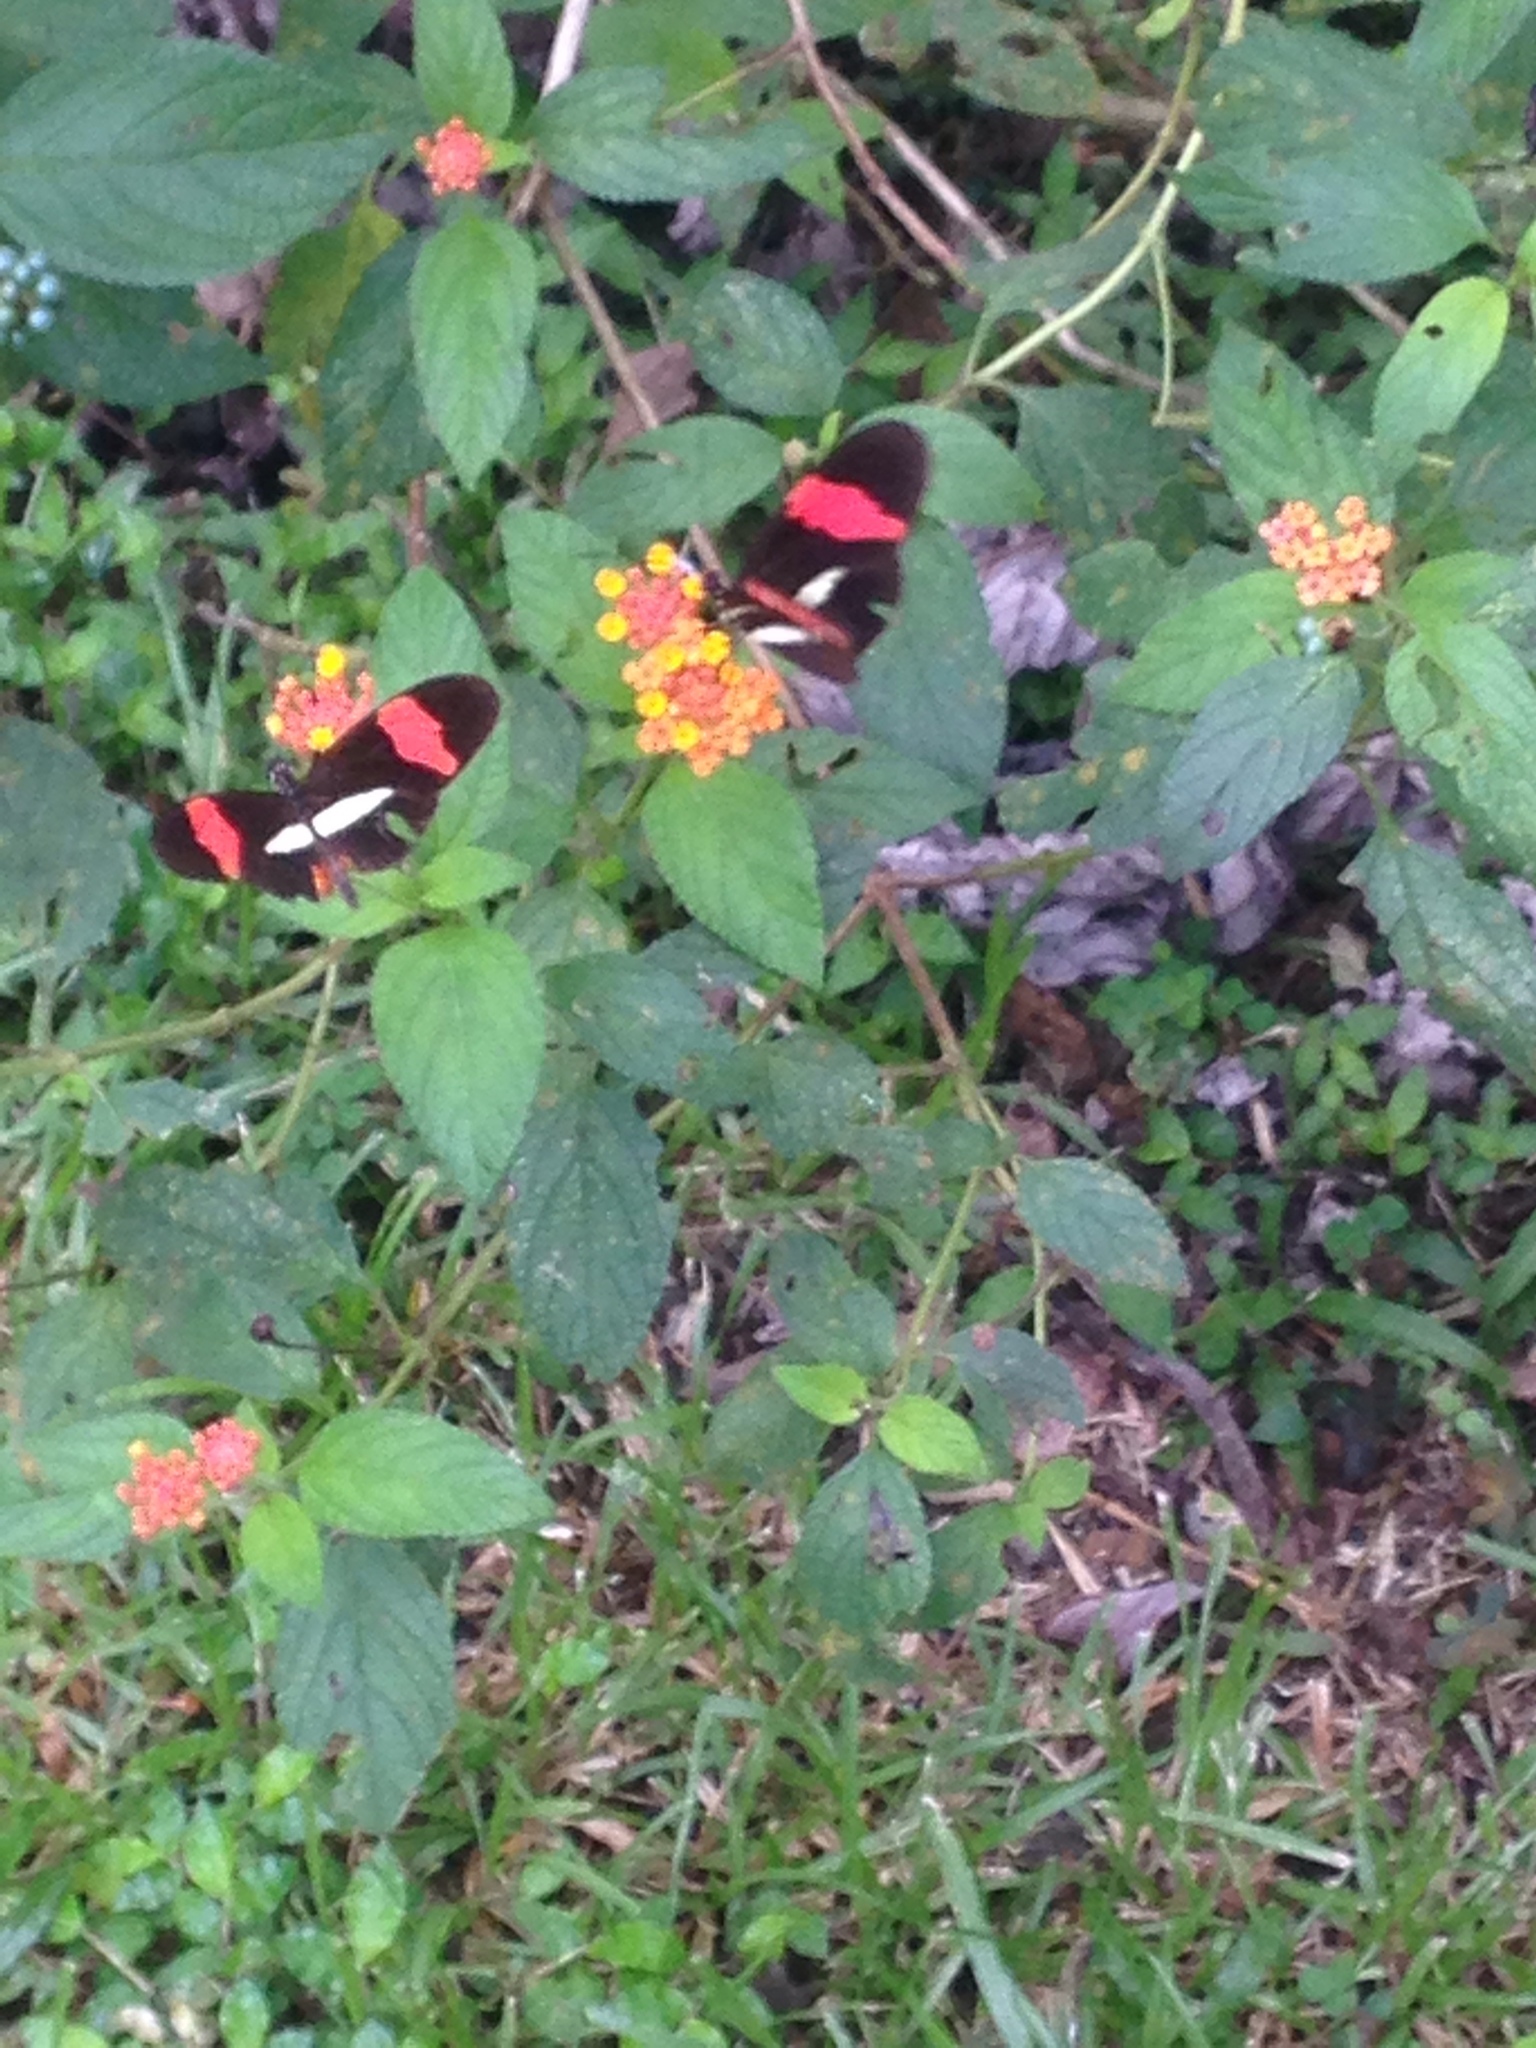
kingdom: Animalia
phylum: Arthropoda
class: Insecta
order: Lepidoptera
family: Nymphalidae
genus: Tirumala
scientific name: Tirumala petiverana
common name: Blue monarch
